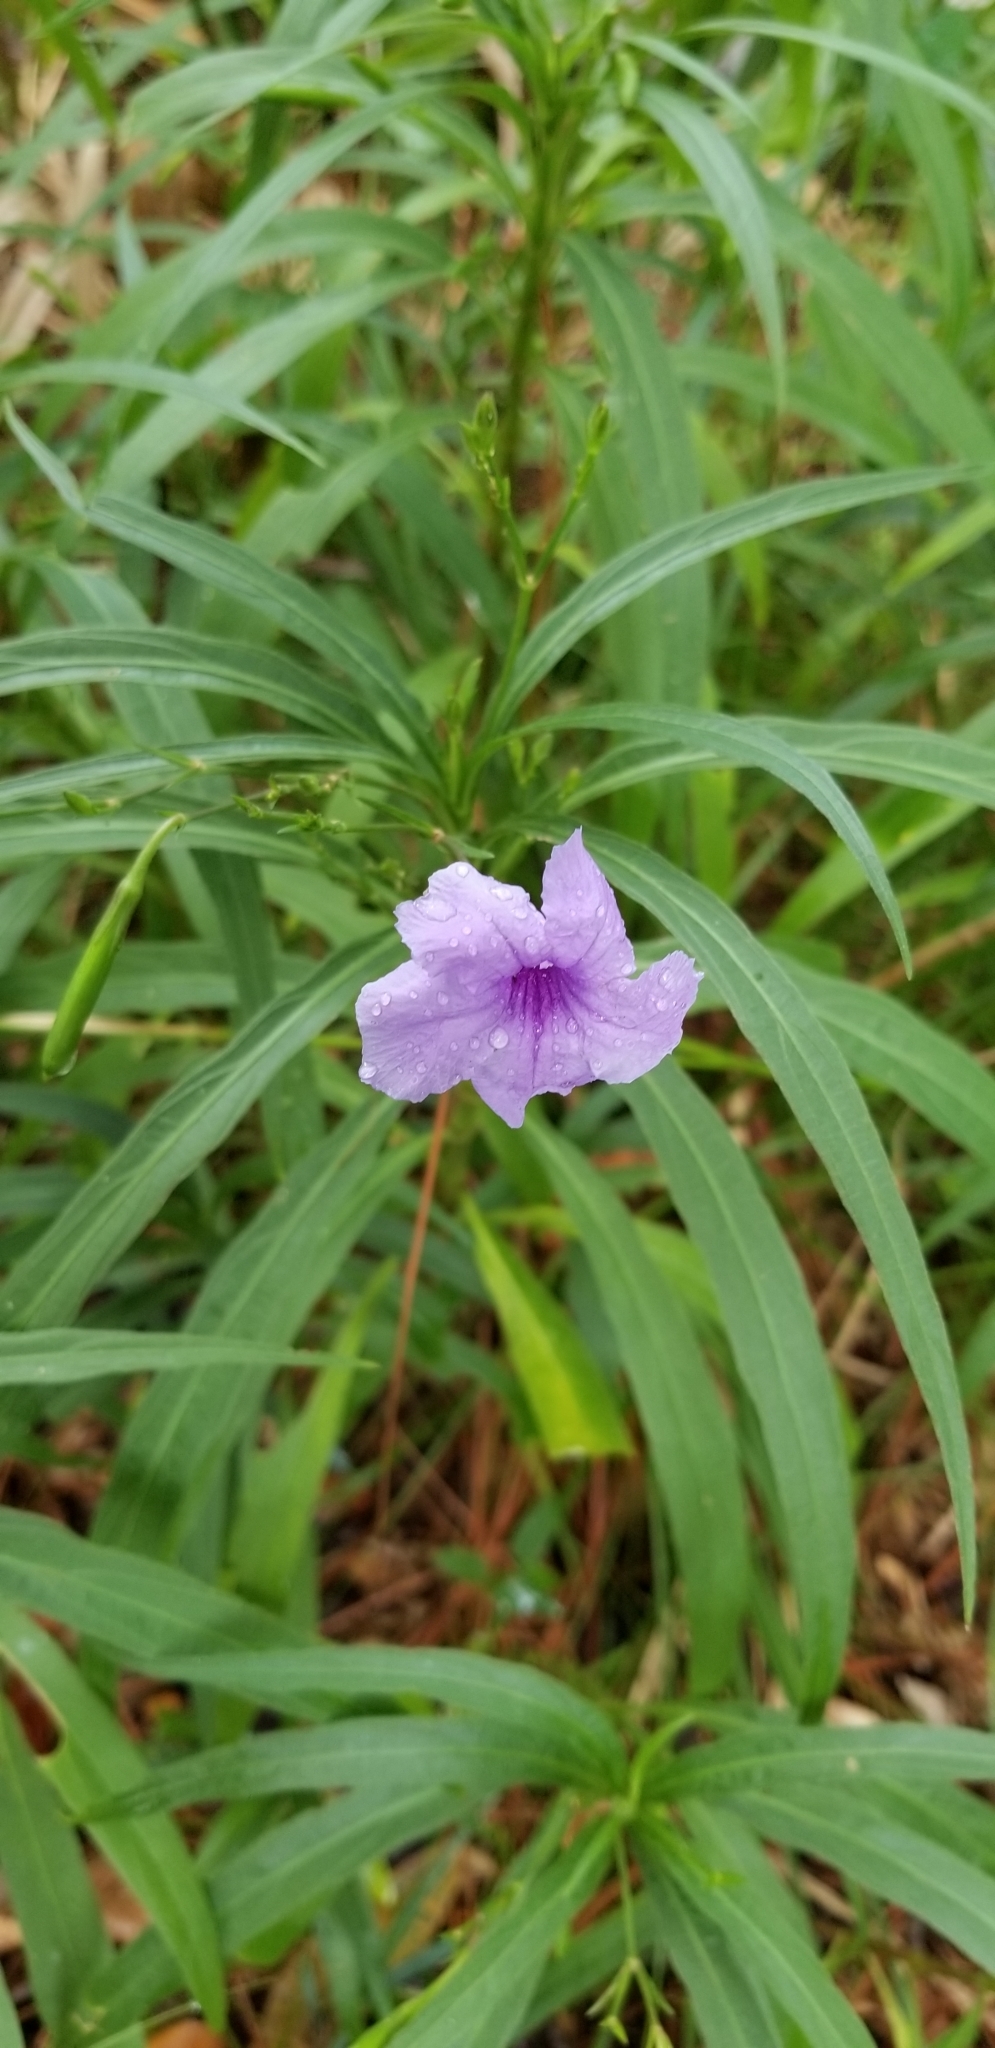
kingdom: Plantae
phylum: Tracheophyta
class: Magnoliopsida
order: Lamiales
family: Acanthaceae
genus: Ruellia
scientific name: Ruellia simplex
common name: Softseed wild petunia
